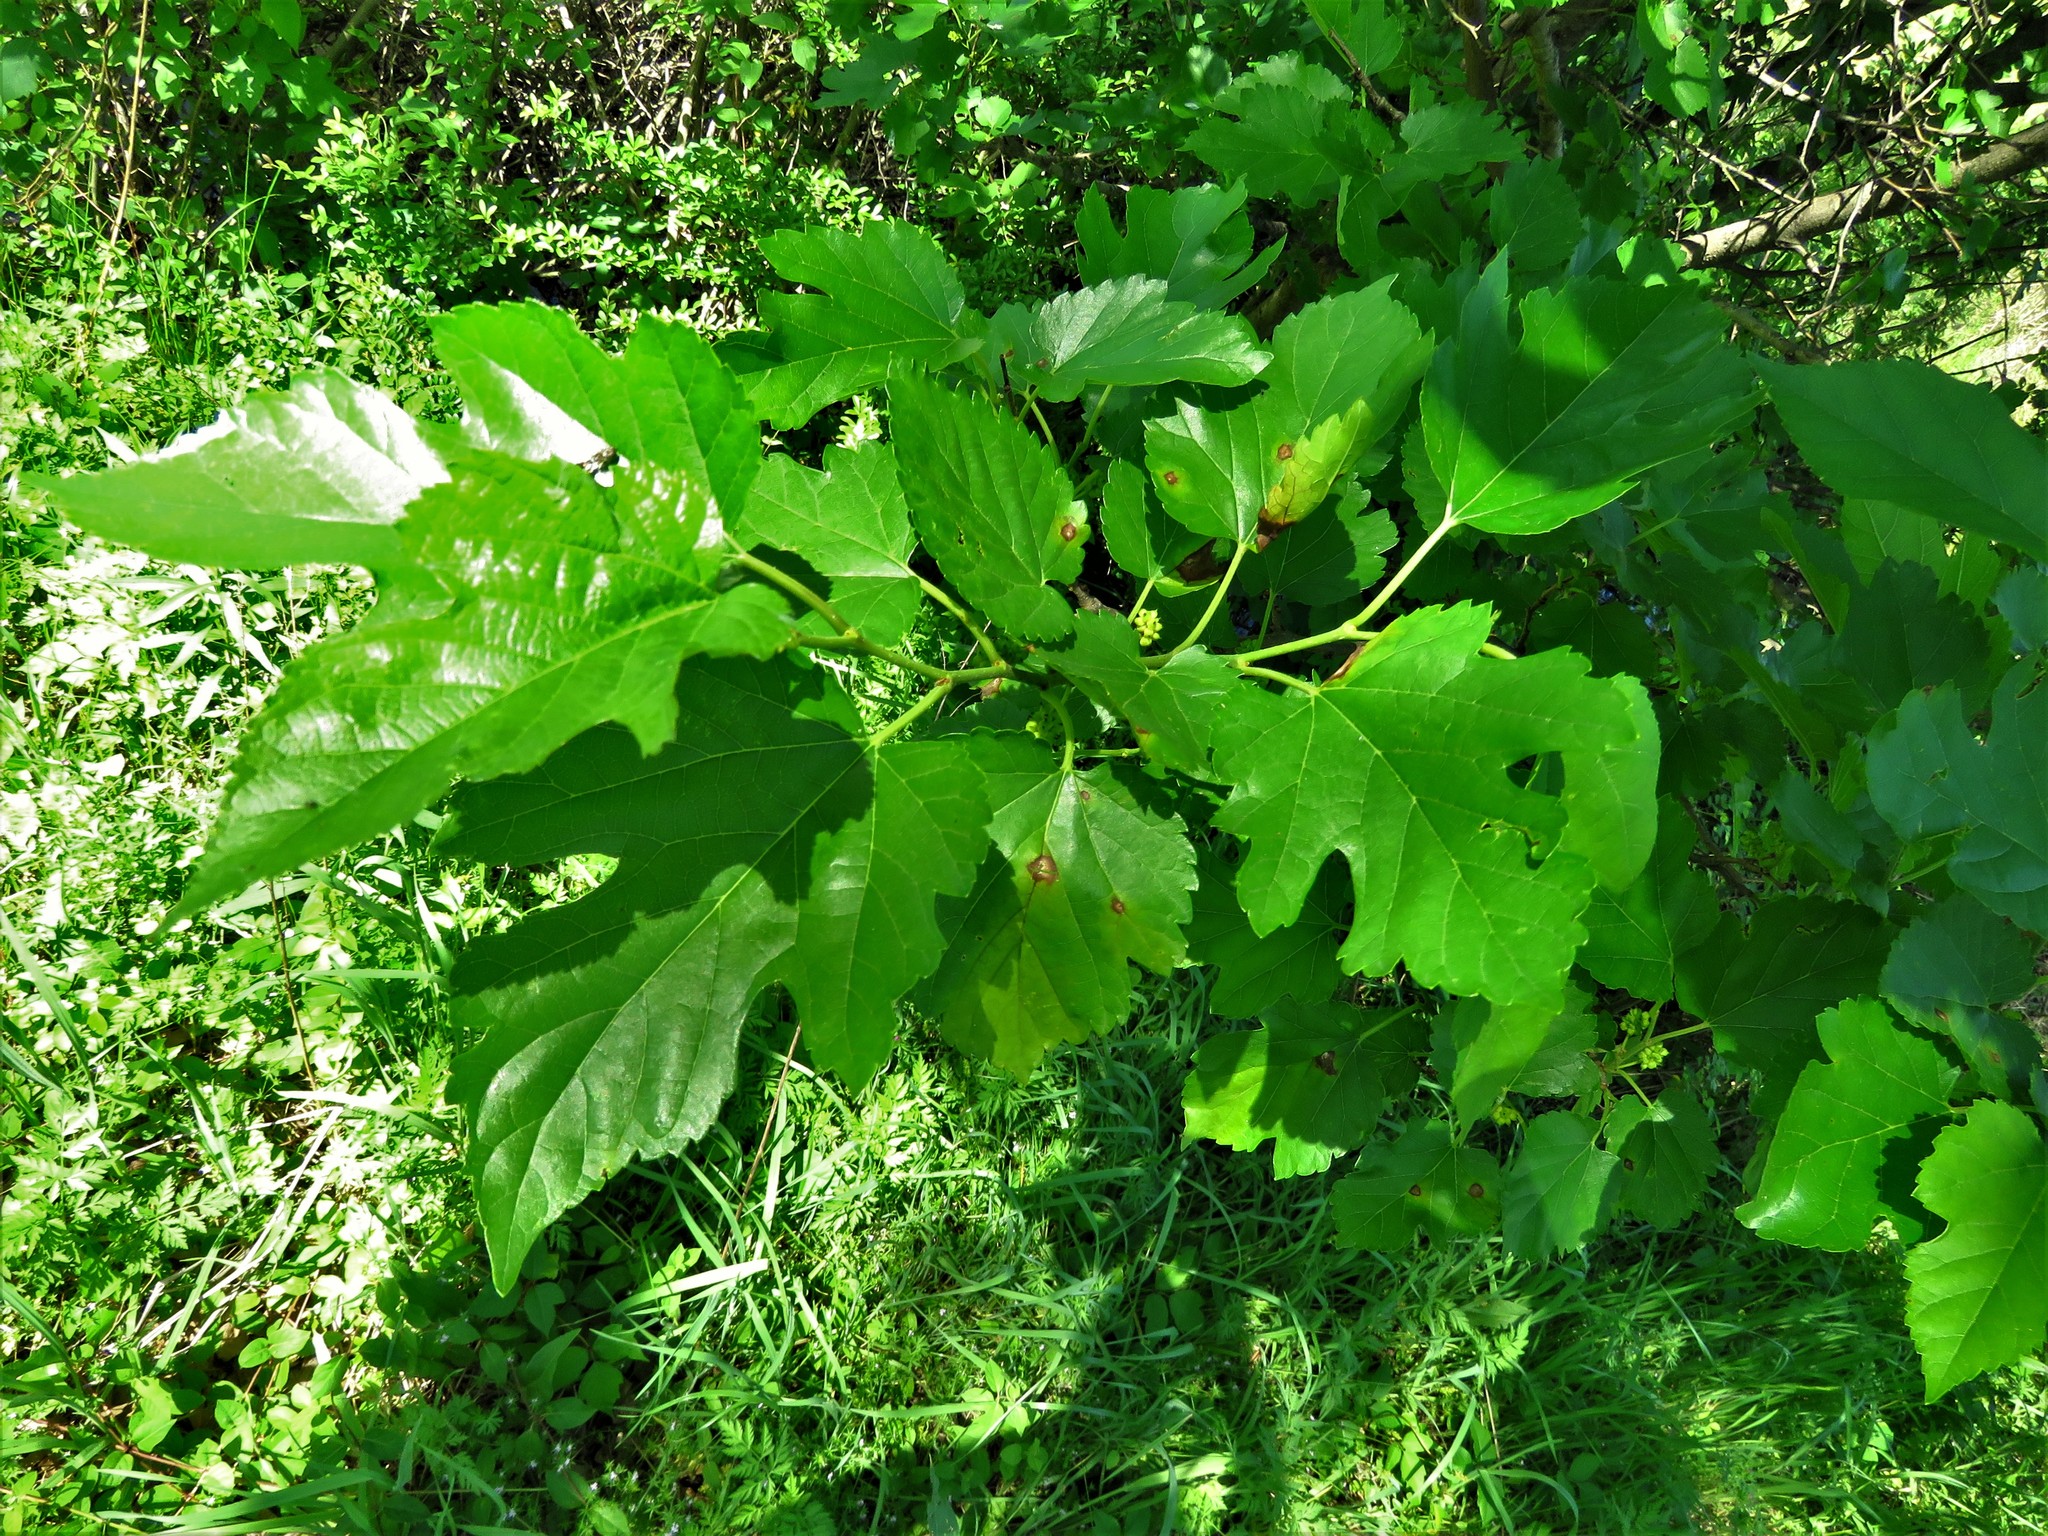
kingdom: Plantae
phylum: Tracheophyta
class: Magnoliopsida
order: Rosales
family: Moraceae
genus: Morus
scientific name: Morus alba
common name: White mulberry
